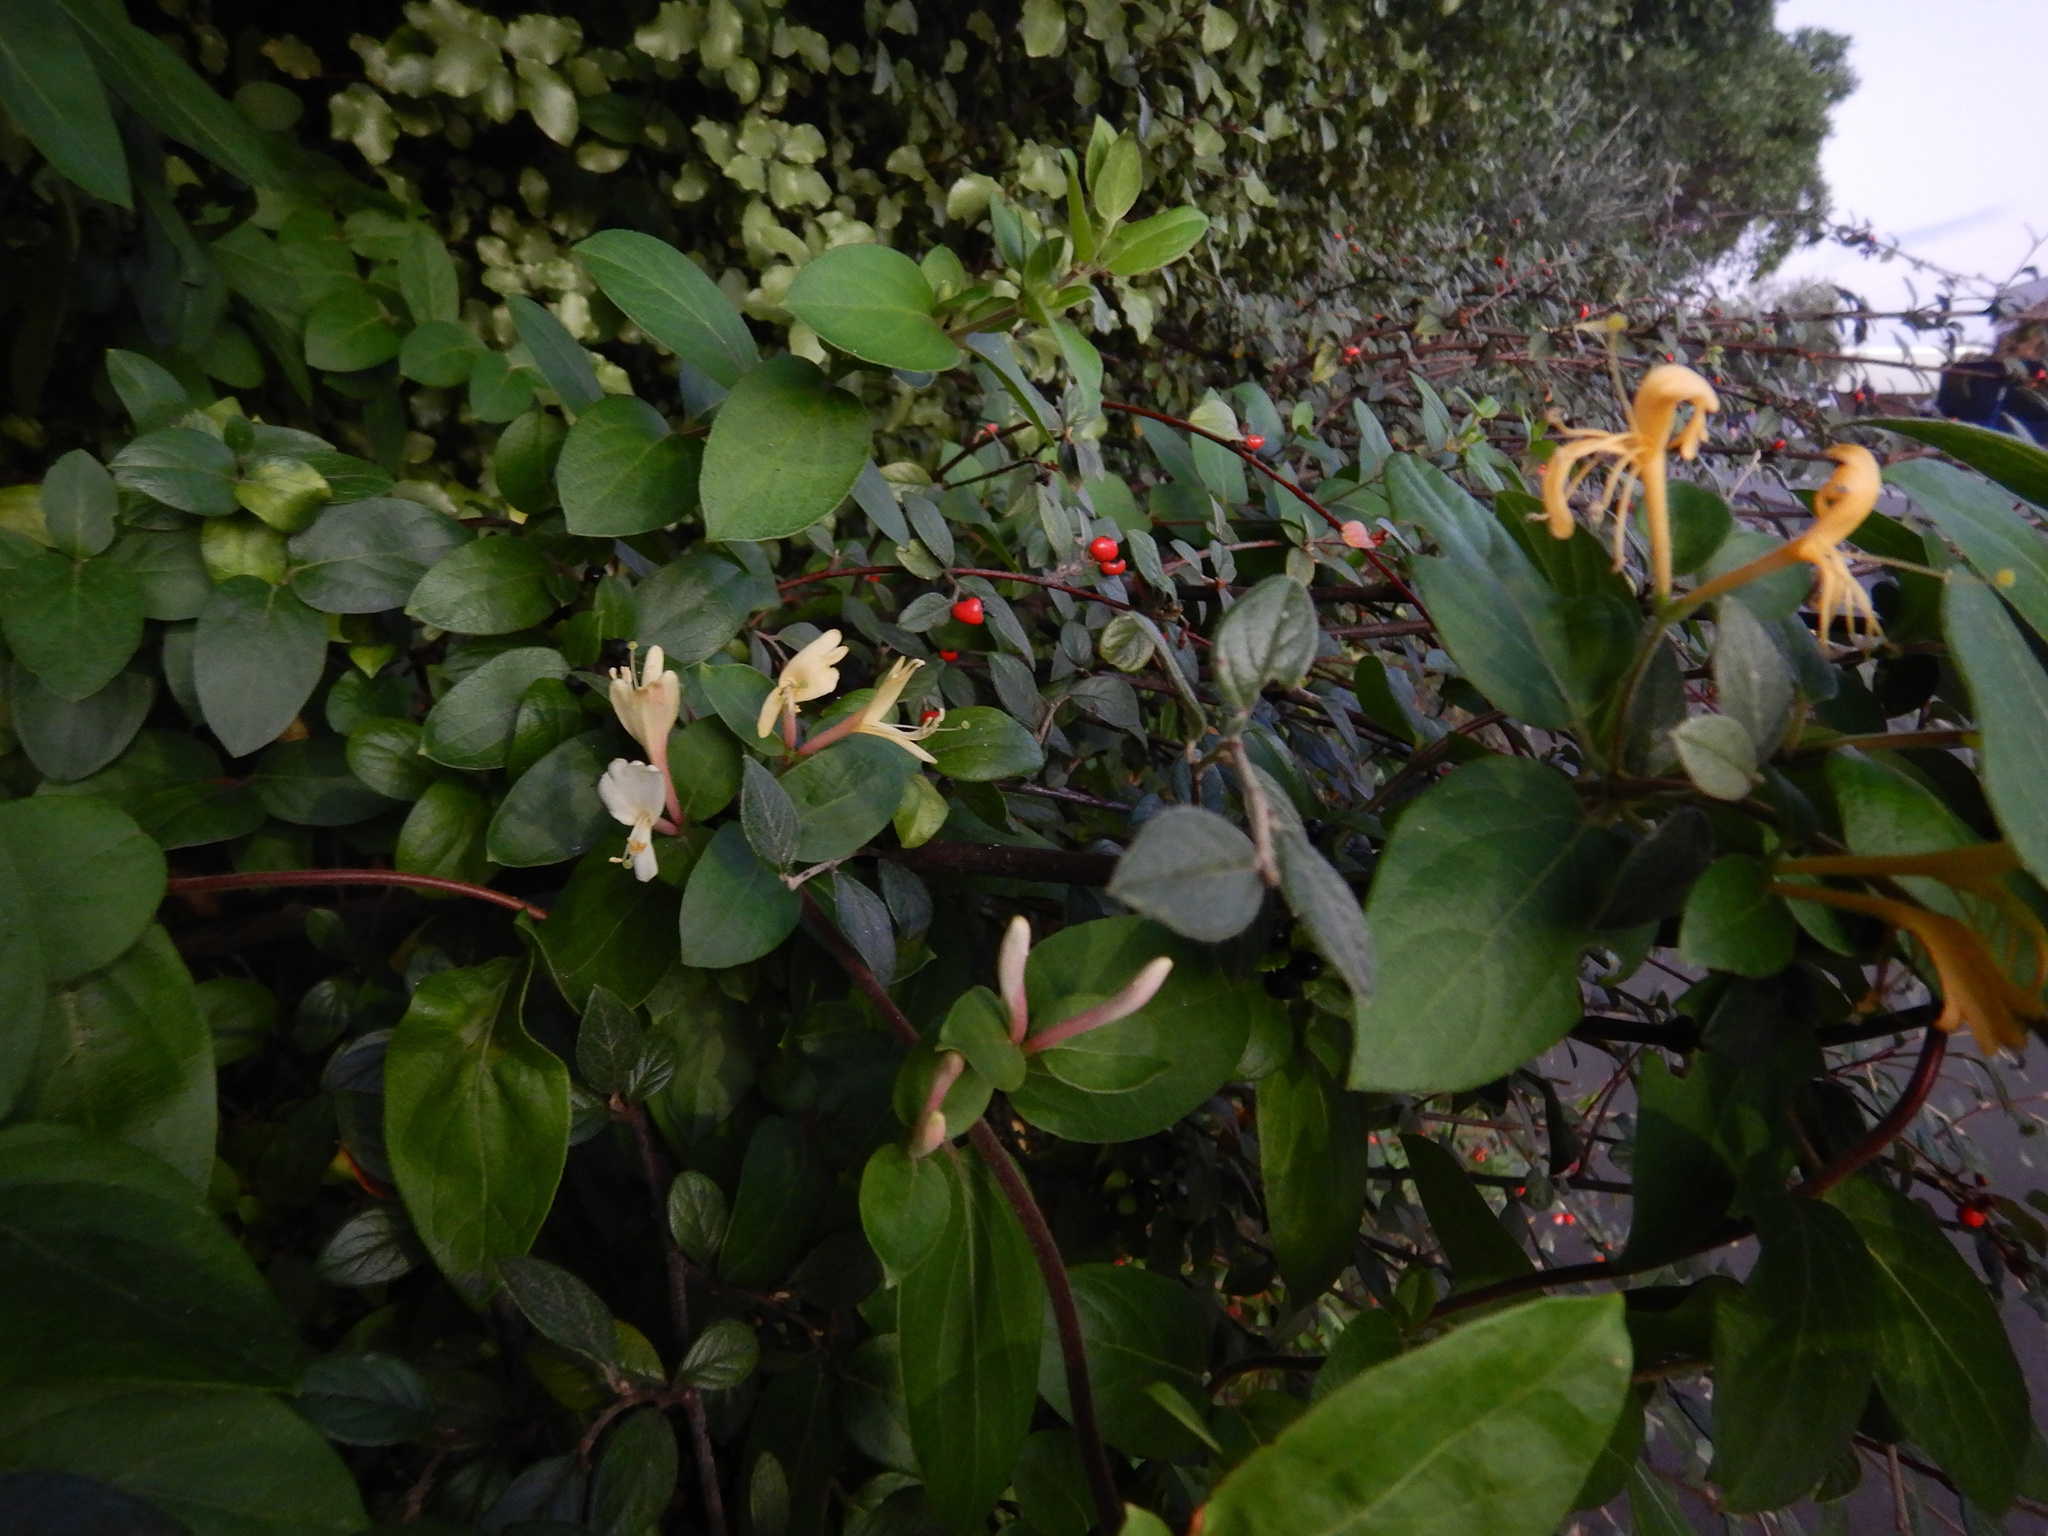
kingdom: Plantae
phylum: Tracheophyta
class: Magnoliopsida
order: Dipsacales
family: Caprifoliaceae
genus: Lonicera
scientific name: Lonicera japonica
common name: Japanese honeysuckle
